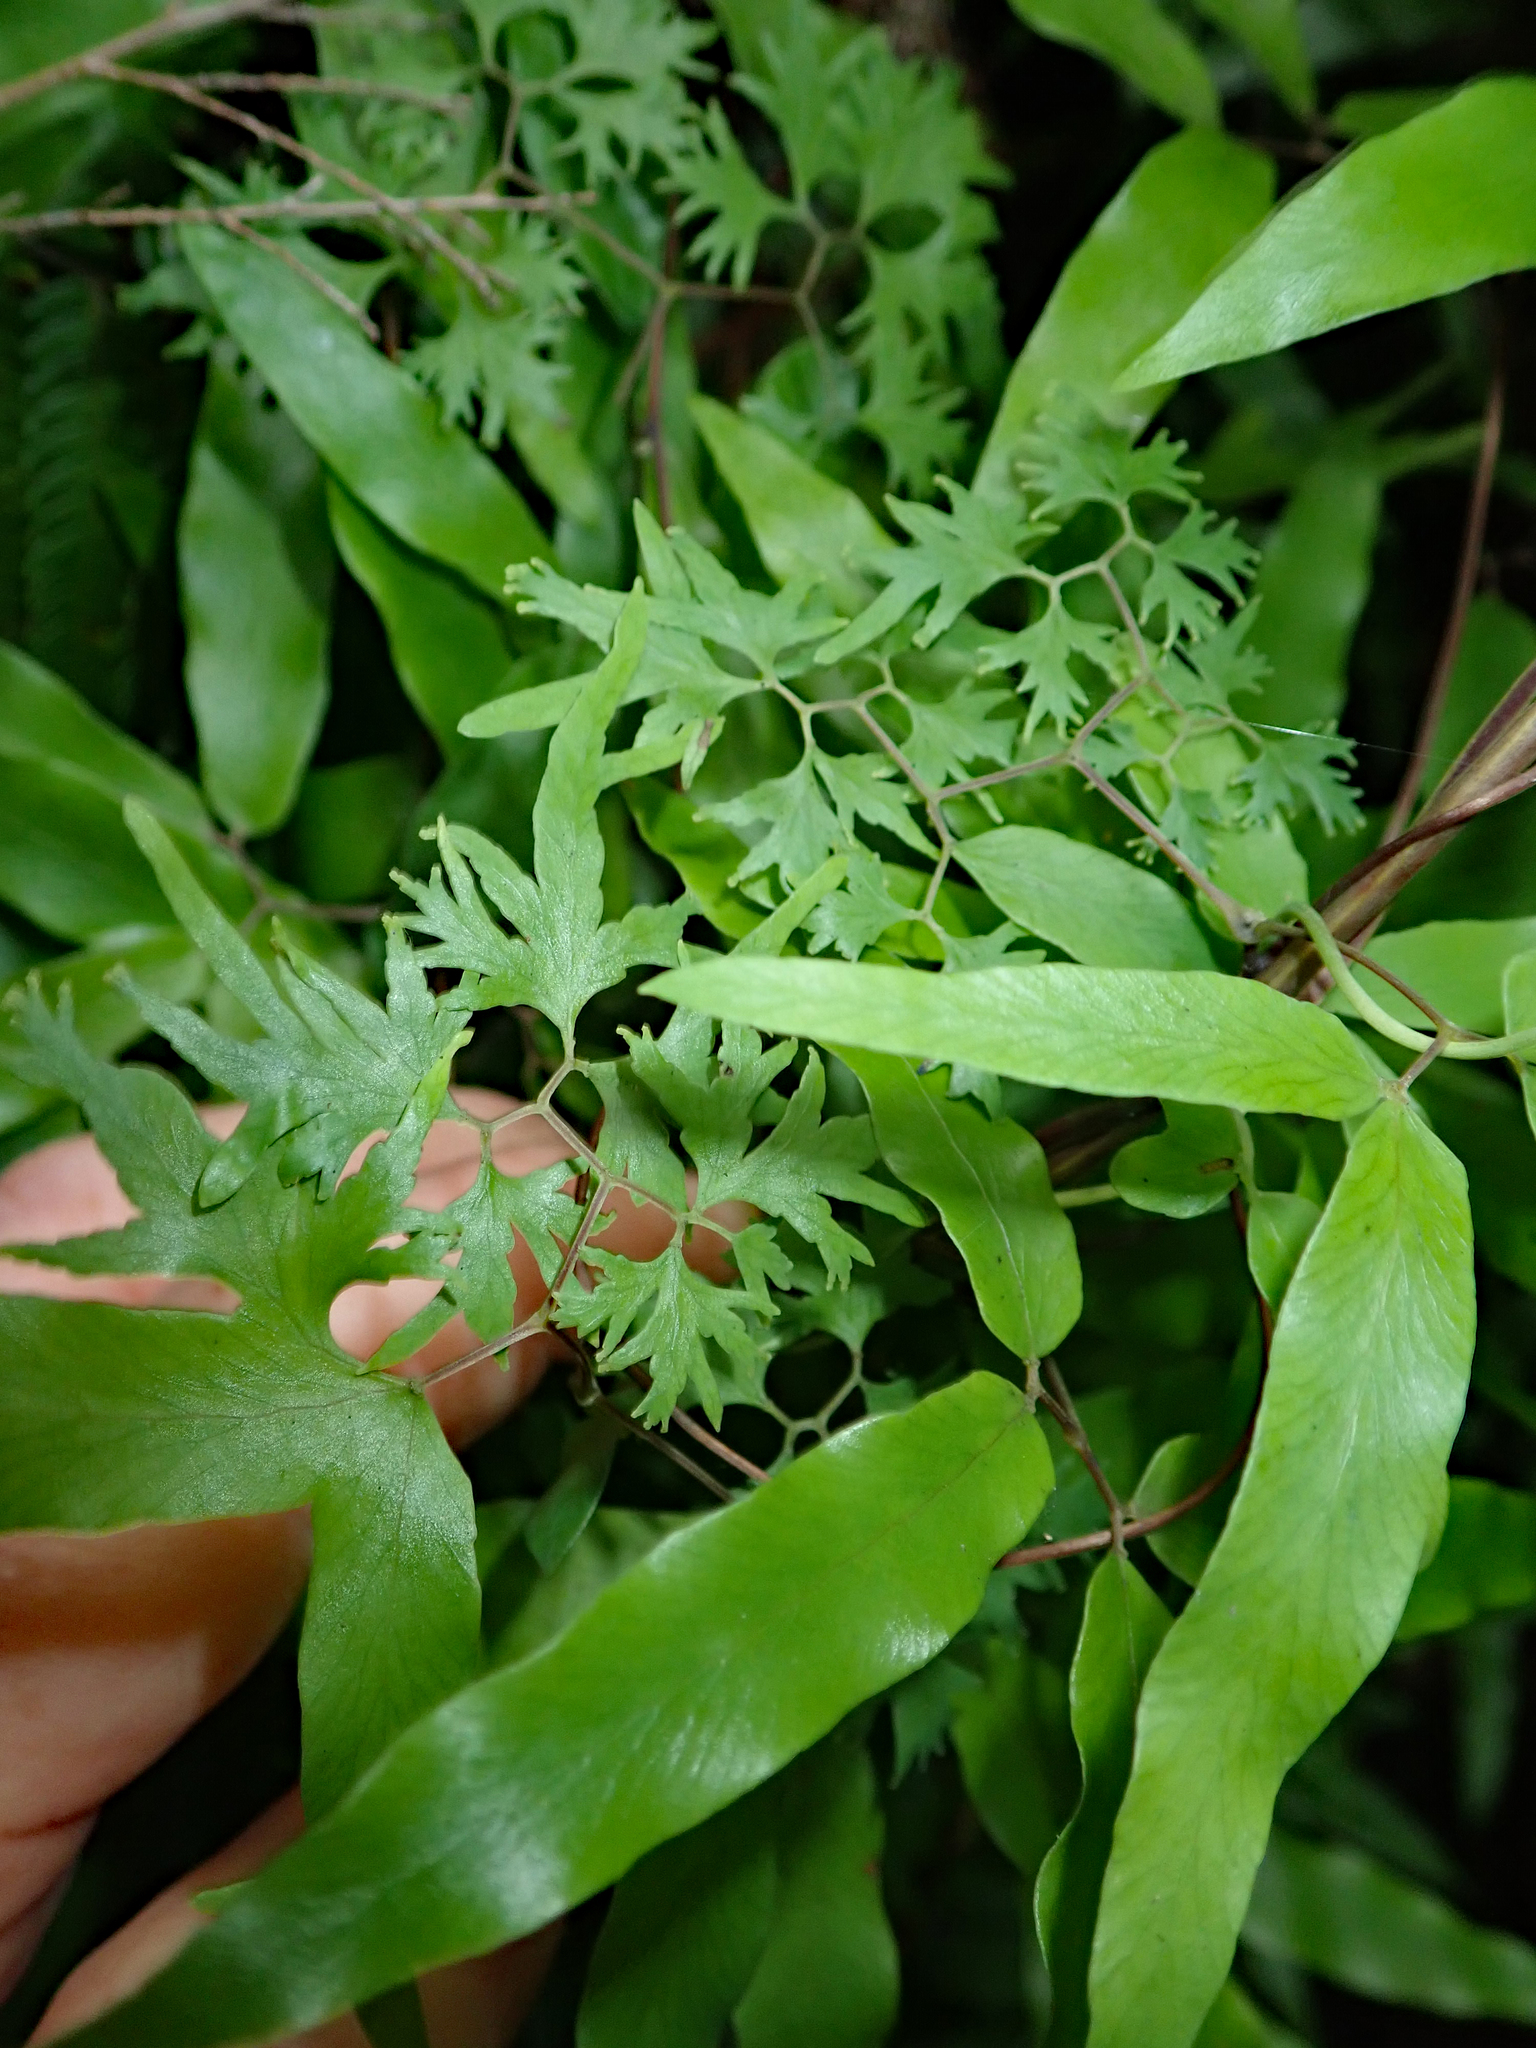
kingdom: Plantae
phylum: Tracheophyta
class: Polypodiopsida
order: Schizaeales
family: Lygodiaceae
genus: Lygodium
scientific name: Lygodium articulatum
